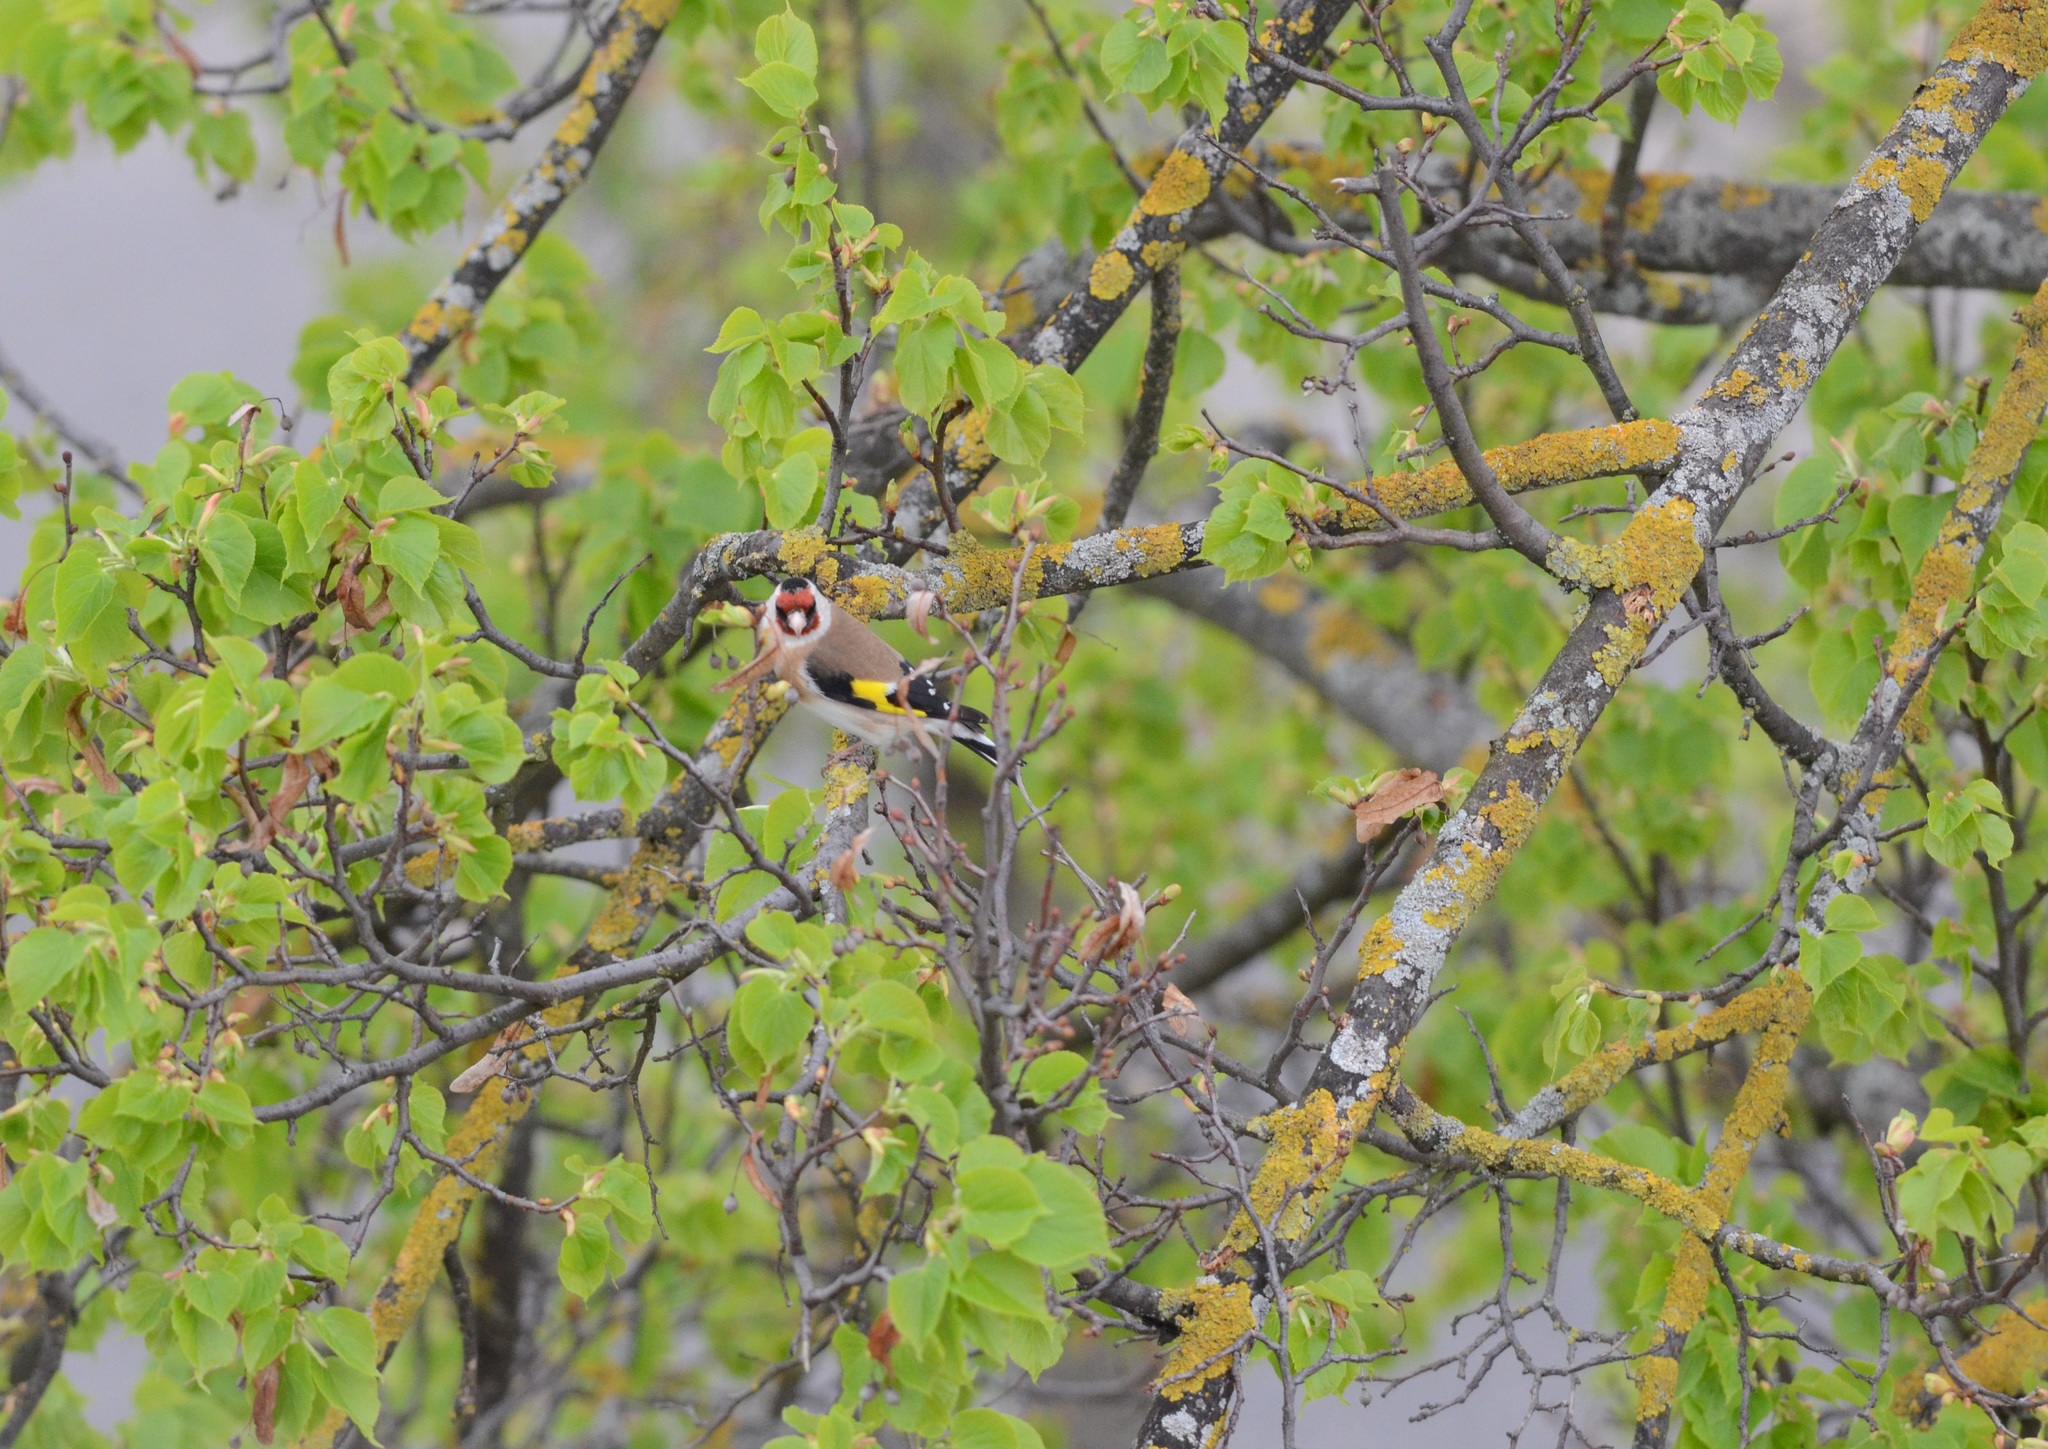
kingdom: Animalia
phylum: Chordata
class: Aves
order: Passeriformes
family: Fringillidae
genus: Carduelis
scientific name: Carduelis carduelis
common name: European goldfinch
